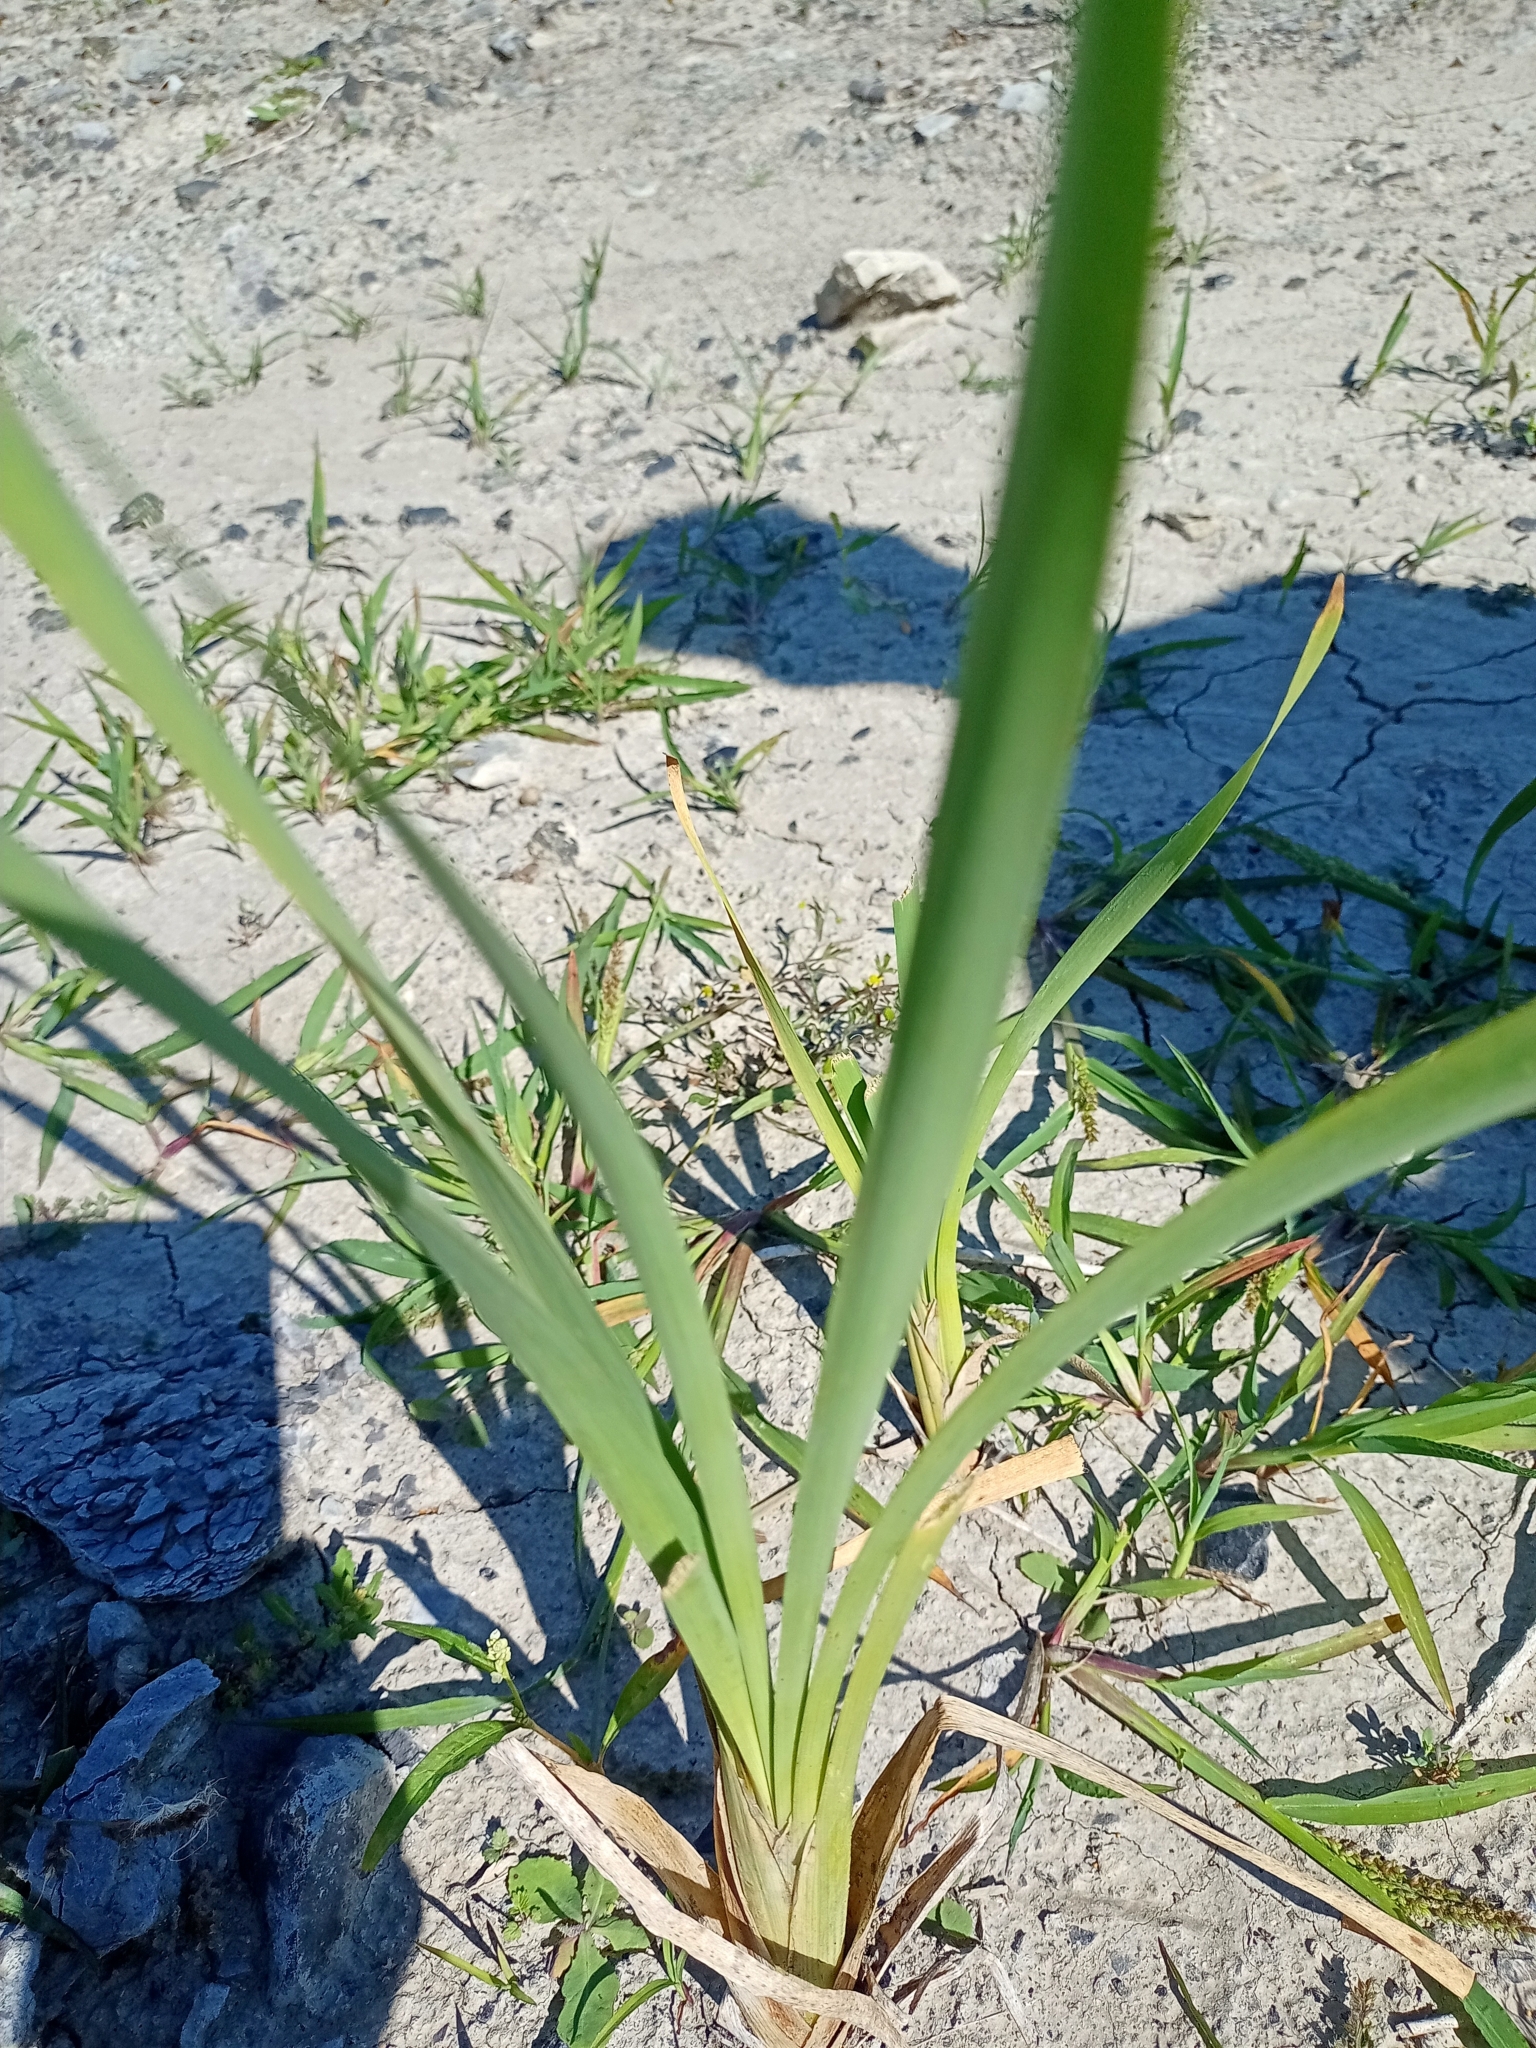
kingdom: Plantae
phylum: Tracheophyta
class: Liliopsida
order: Poales
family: Typhaceae
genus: Typha
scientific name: Typha latifolia
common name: Broadleaf cattail
